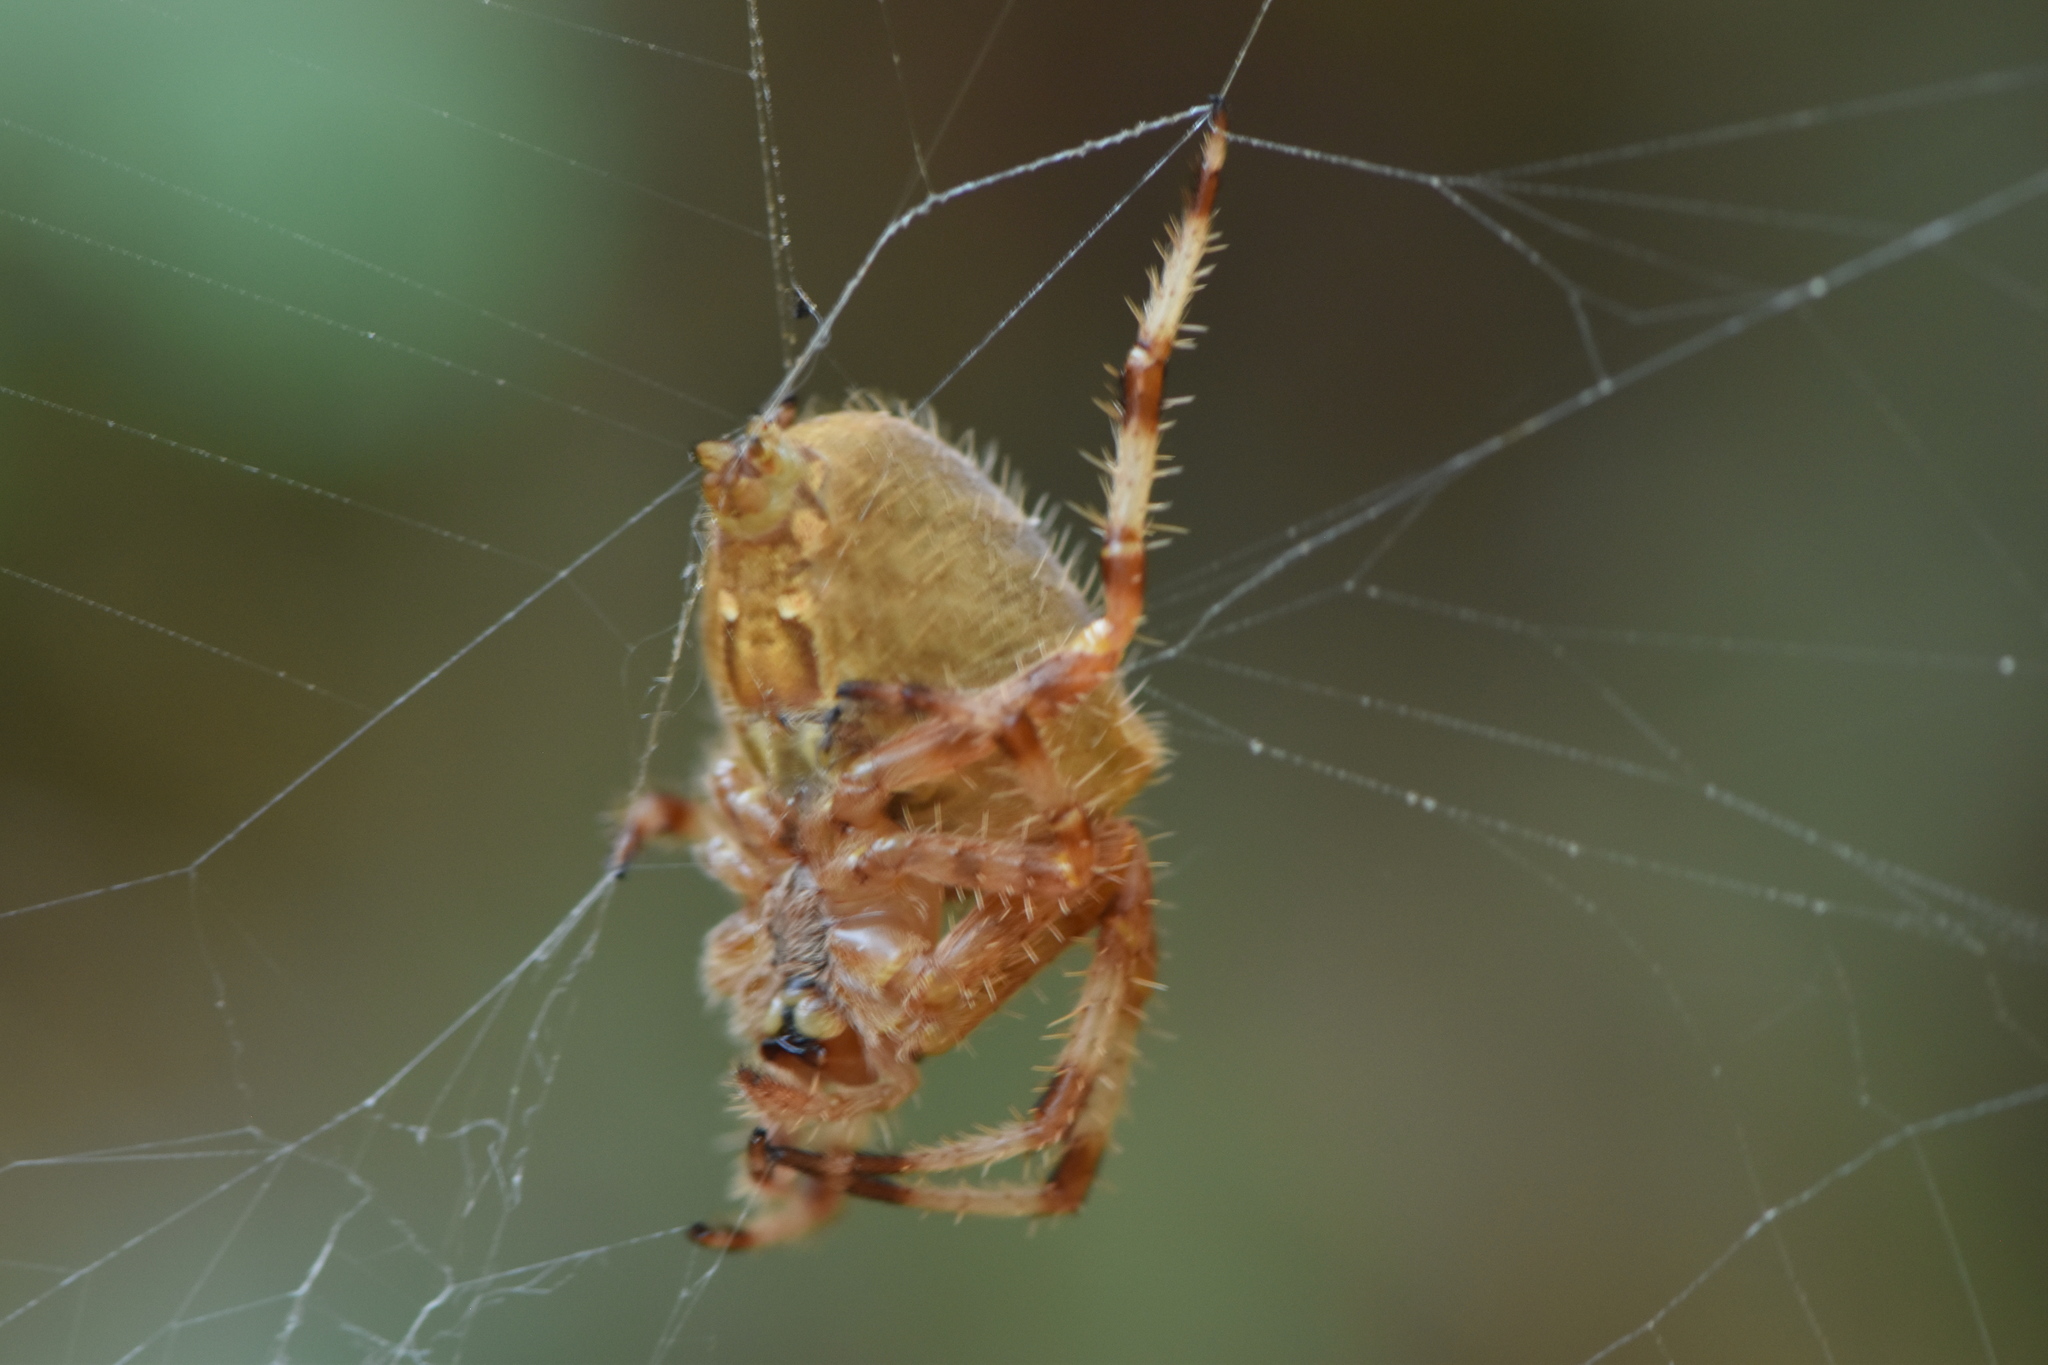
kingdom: Animalia
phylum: Arthropoda
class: Arachnida
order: Araneae
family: Araneidae
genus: Araneus
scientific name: Araneus pallidus
